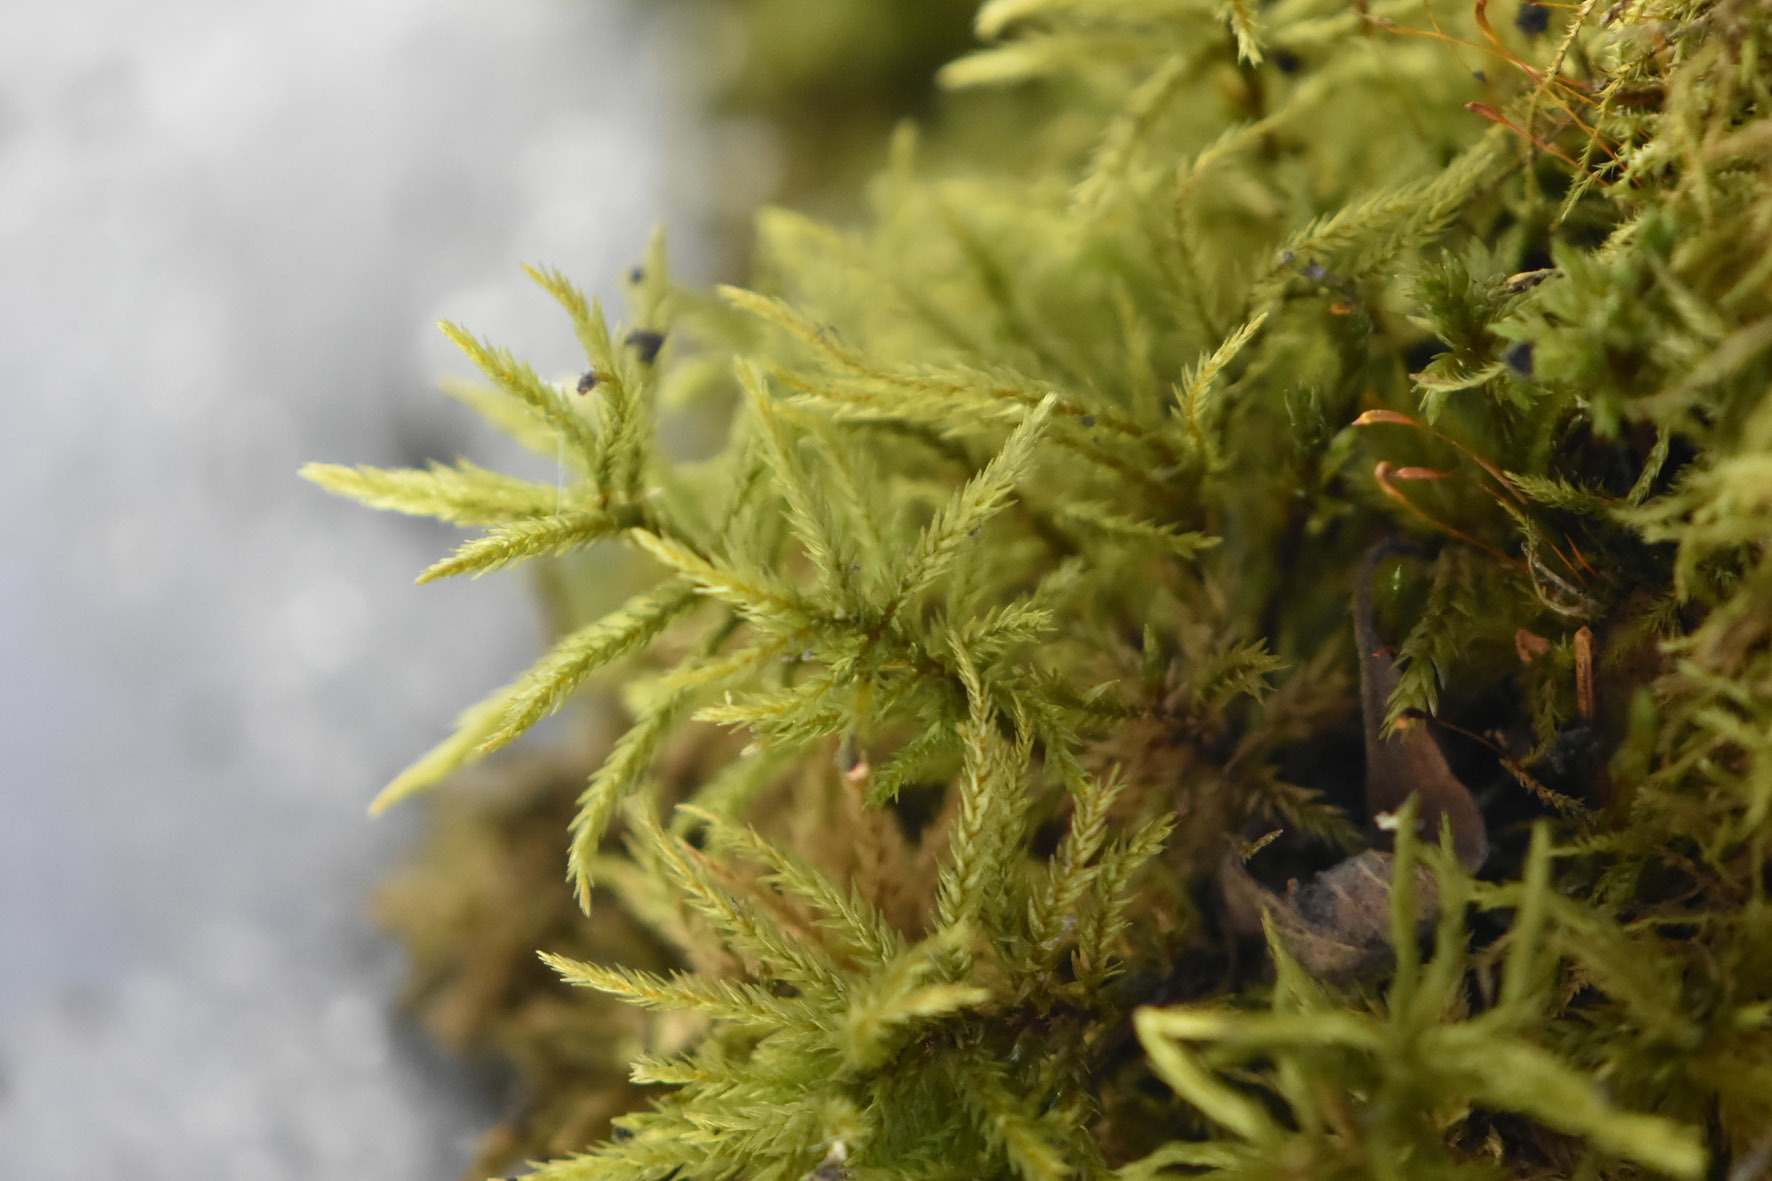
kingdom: Plantae
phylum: Bryophyta
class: Bryopsida
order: Hypnales
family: Climaciaceae
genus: Climacium
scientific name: Climacium dendroides
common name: Northern tree moss
